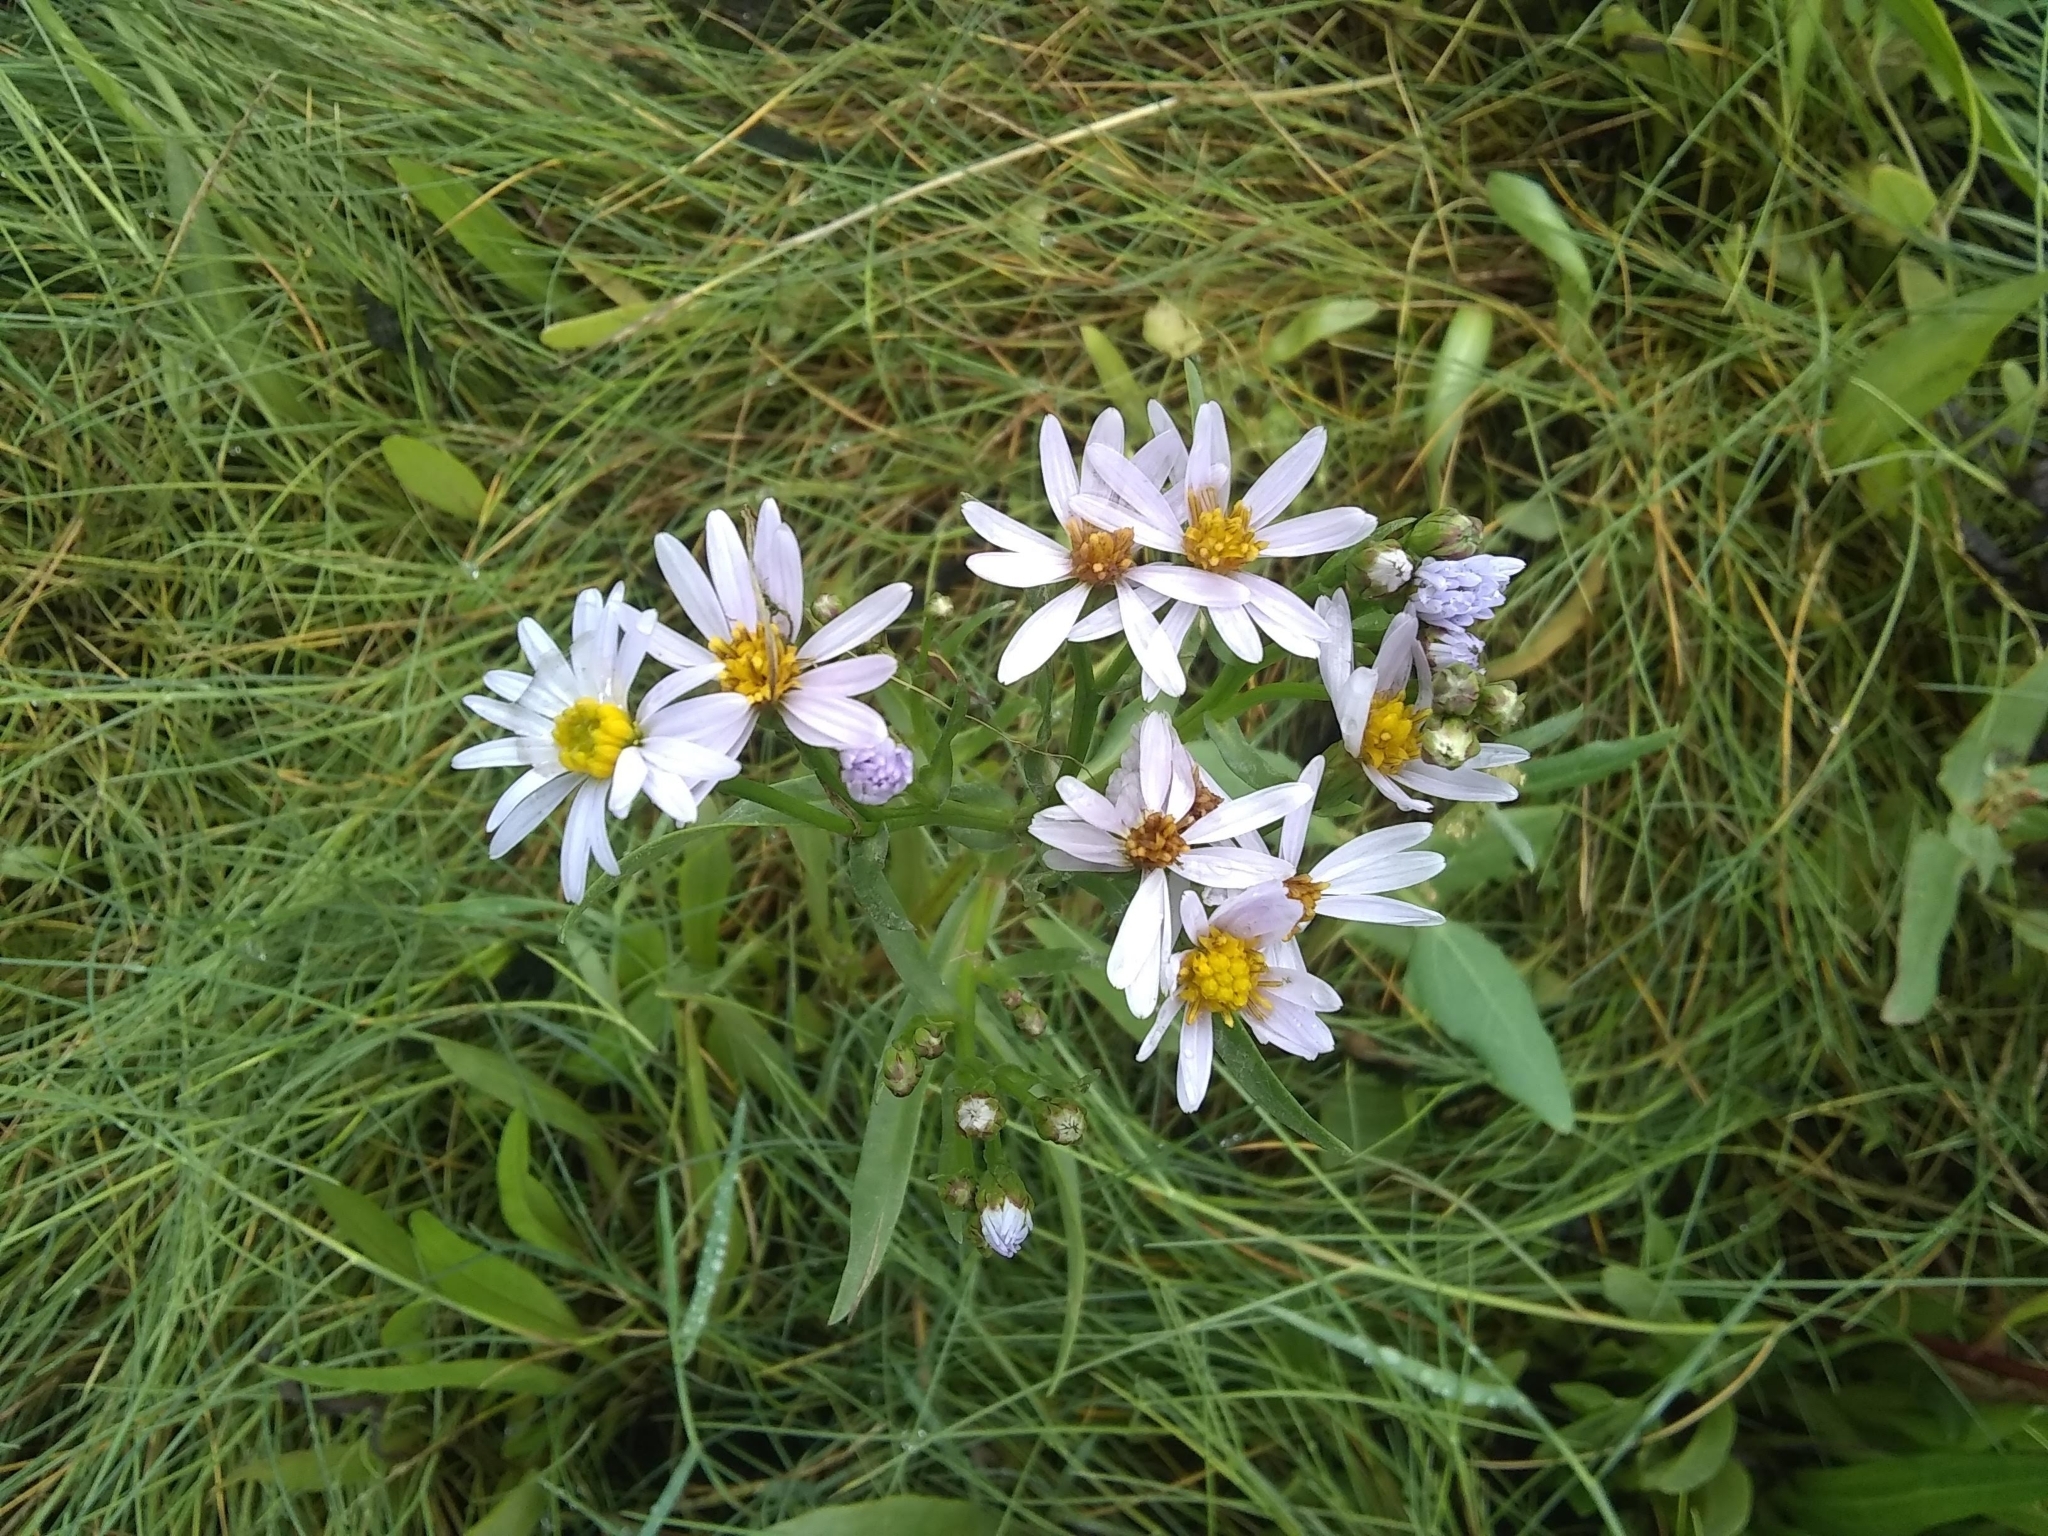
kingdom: Plantae
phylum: Tracheophyta
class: Magnoliopsida
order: Asterales
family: Asteraceae
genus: Tripolium
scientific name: Tripolium pannonicum
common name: Sea aster
